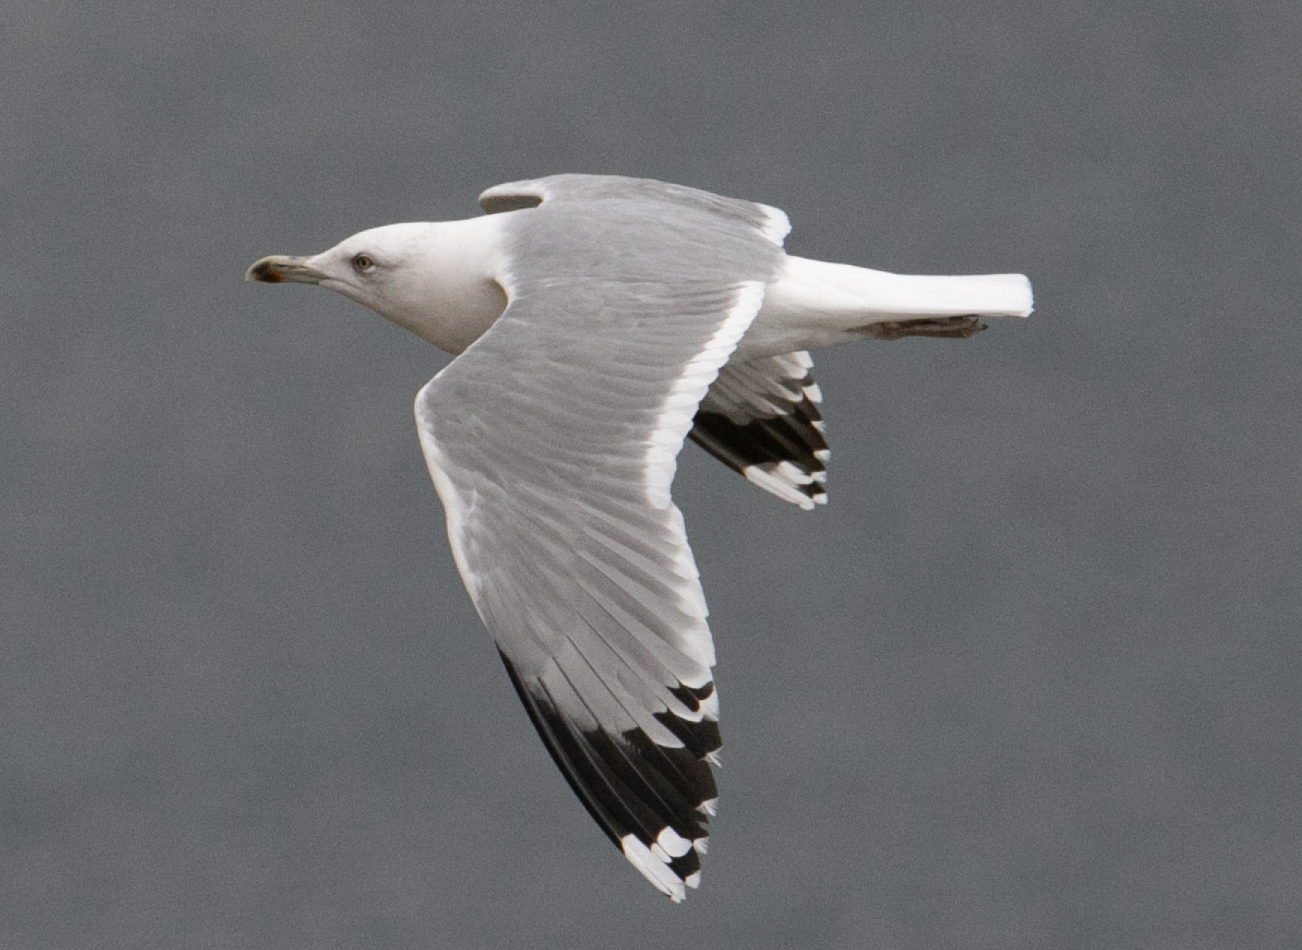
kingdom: Animalia
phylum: Chordata
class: Aves
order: Charadriiformes
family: Laridae
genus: Larus
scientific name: Larus michahellis
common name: Yellow-legged gull
